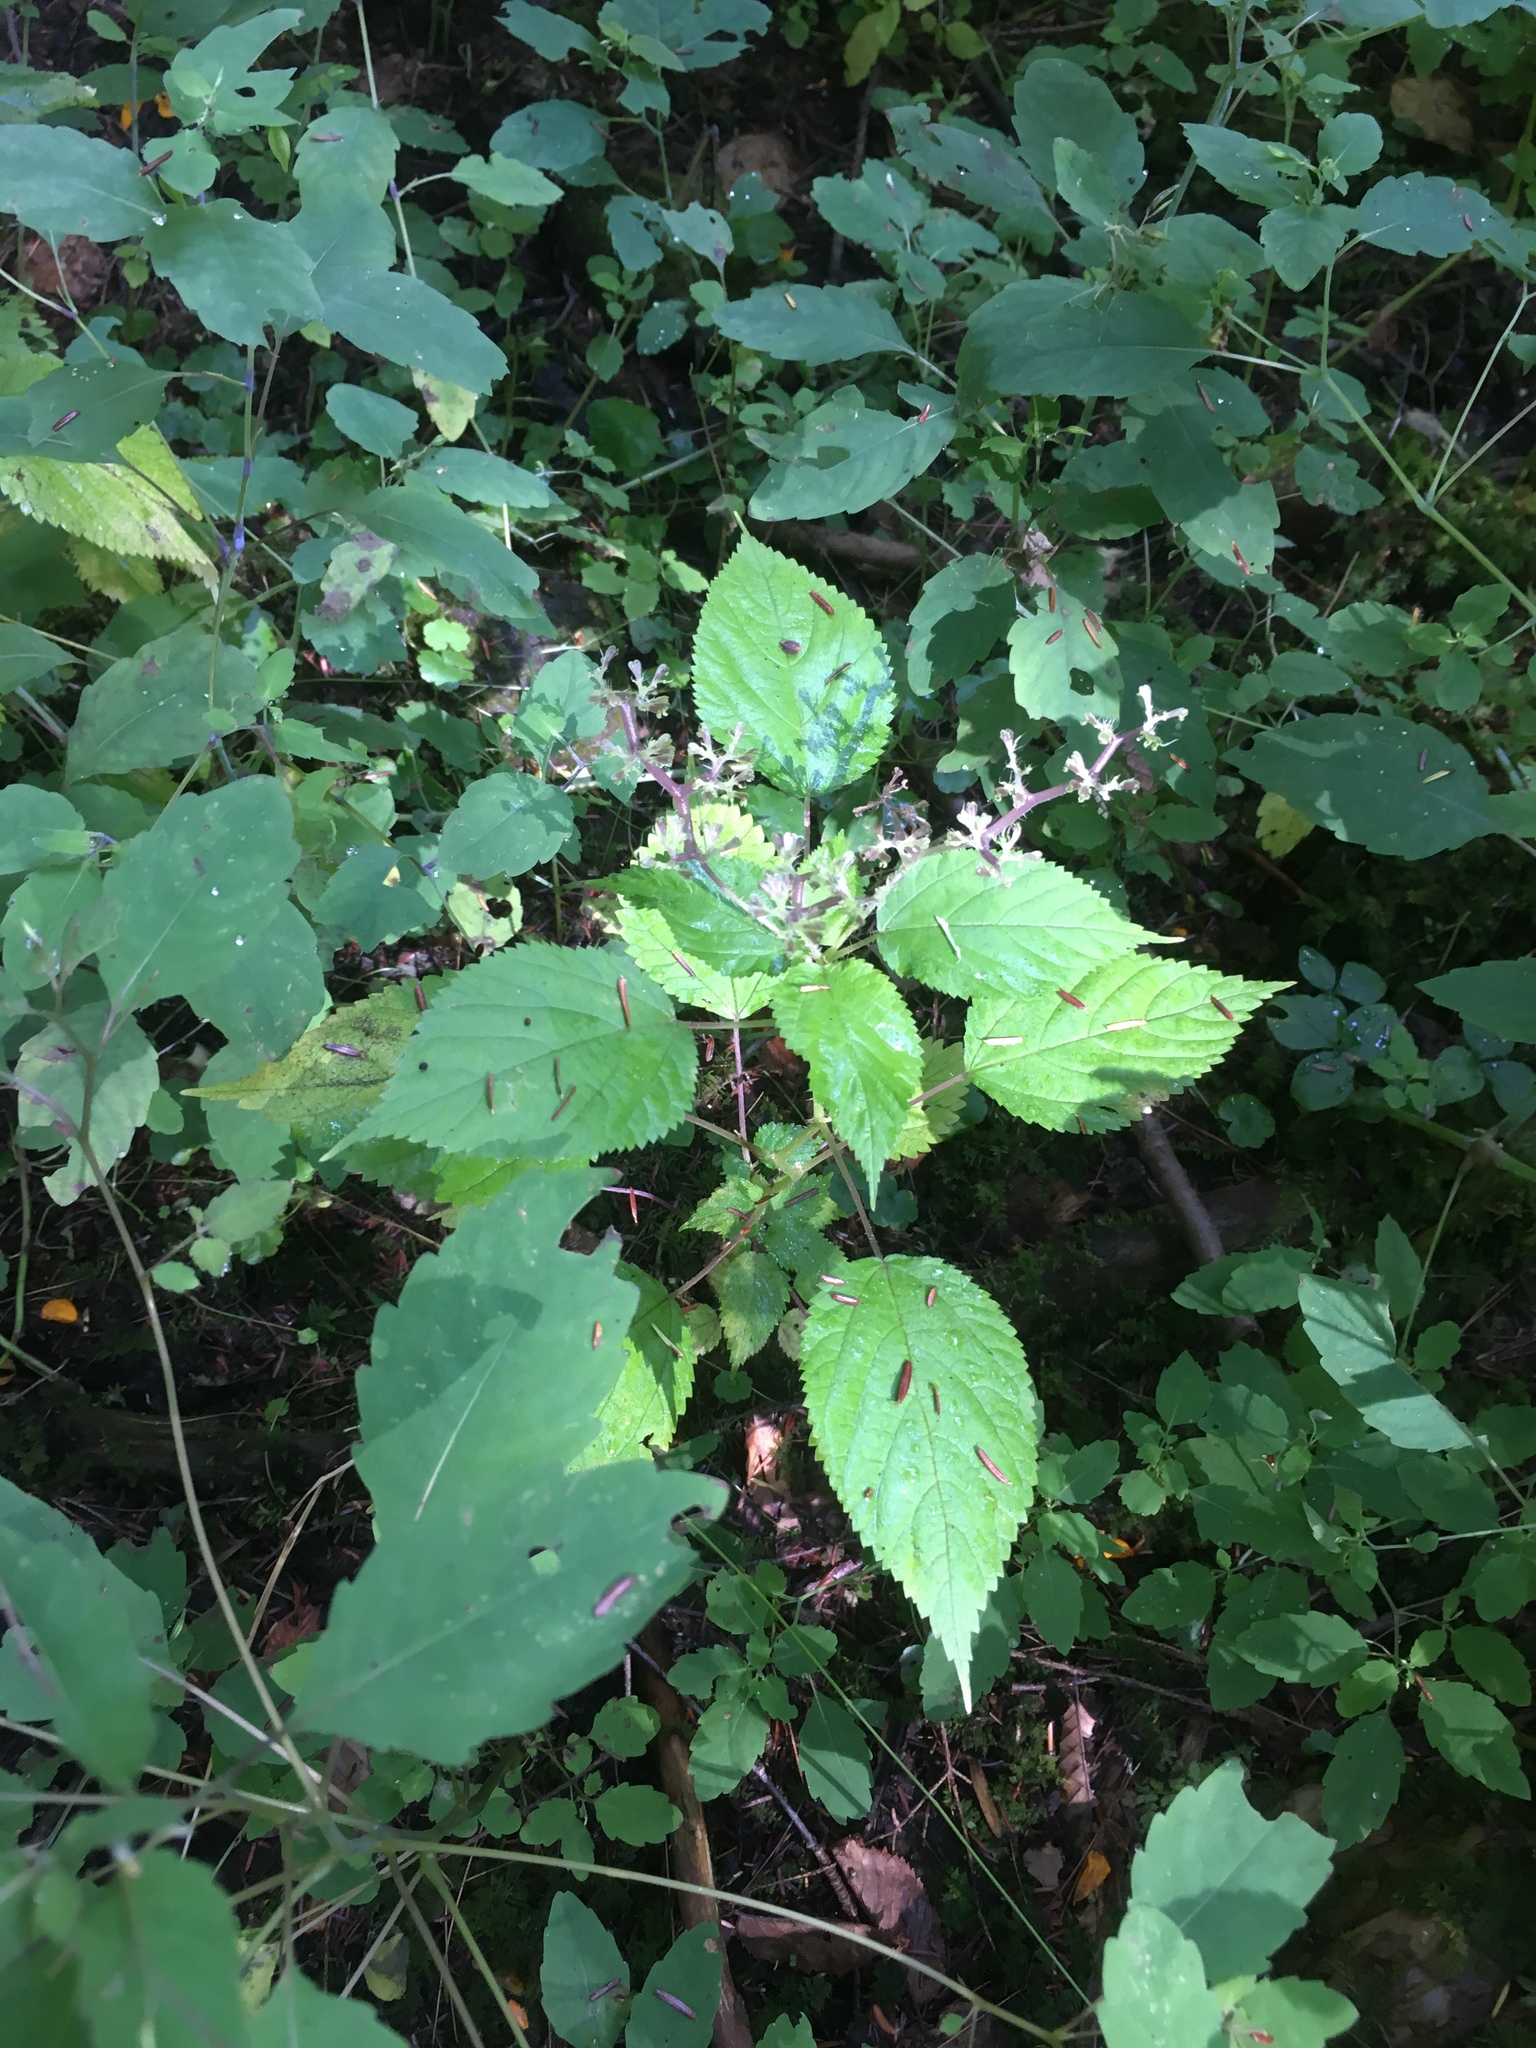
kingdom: Plantae
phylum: Tracheophyta
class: Magnoliopsida
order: Rosales
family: Urticaceae
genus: Laportea
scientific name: Laportea canadensis
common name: Canada nettle
